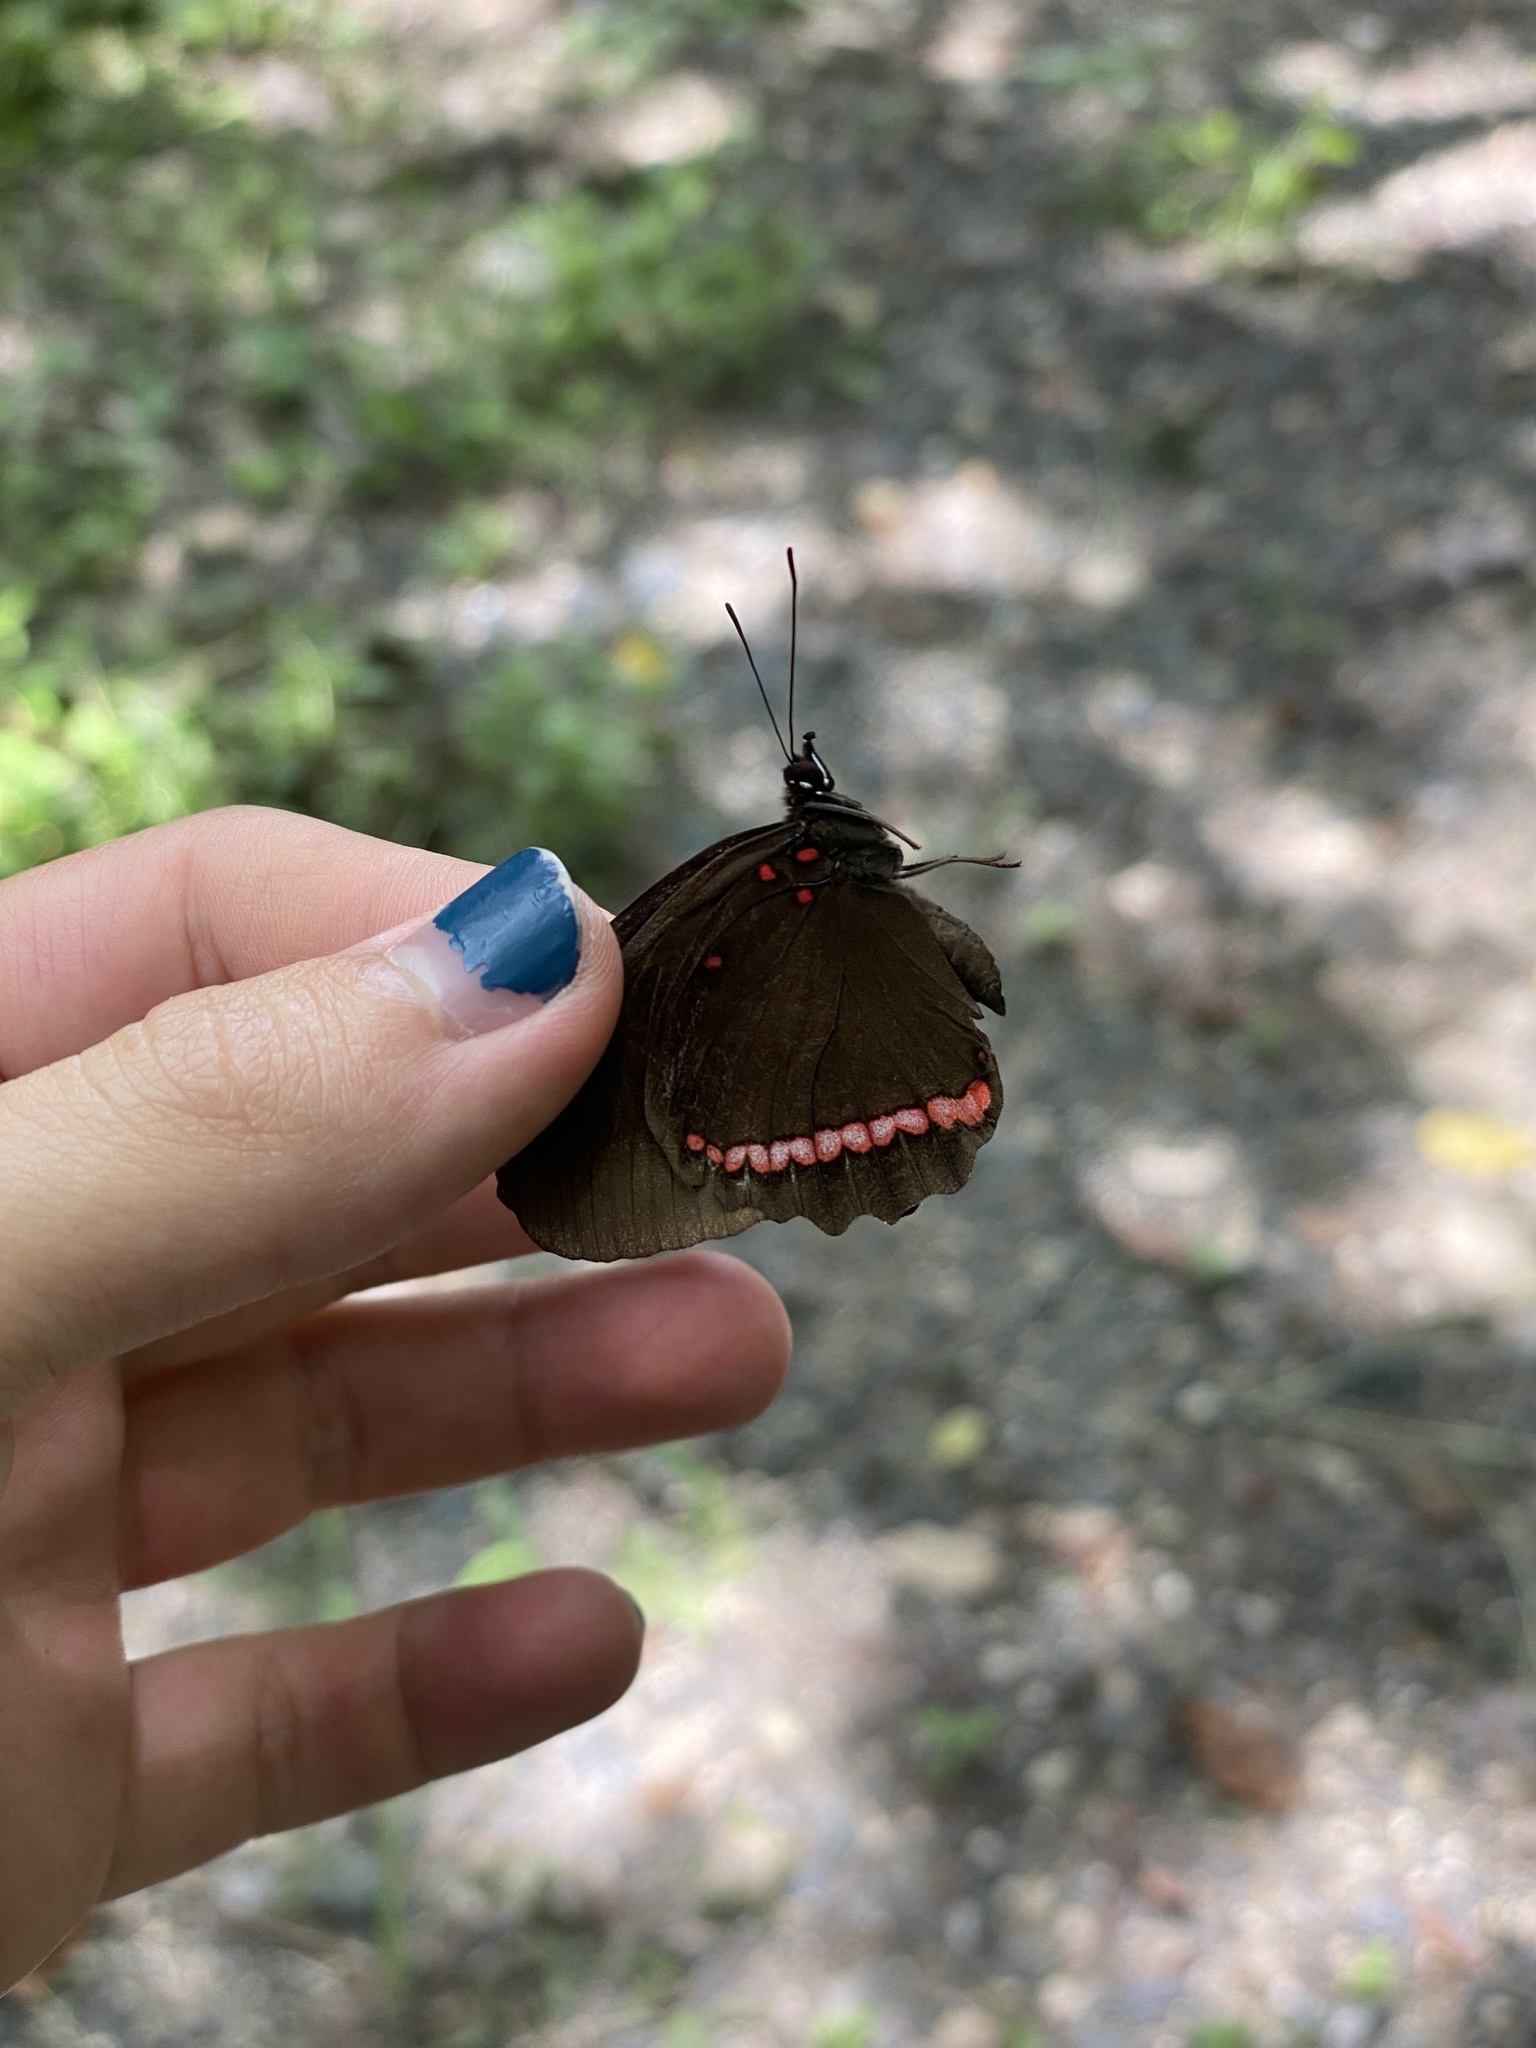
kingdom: Animalia
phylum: Arthropoda
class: Insecta
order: Lepidoptera
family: Nymphalidae
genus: Biblis
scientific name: Biblis aganisa
